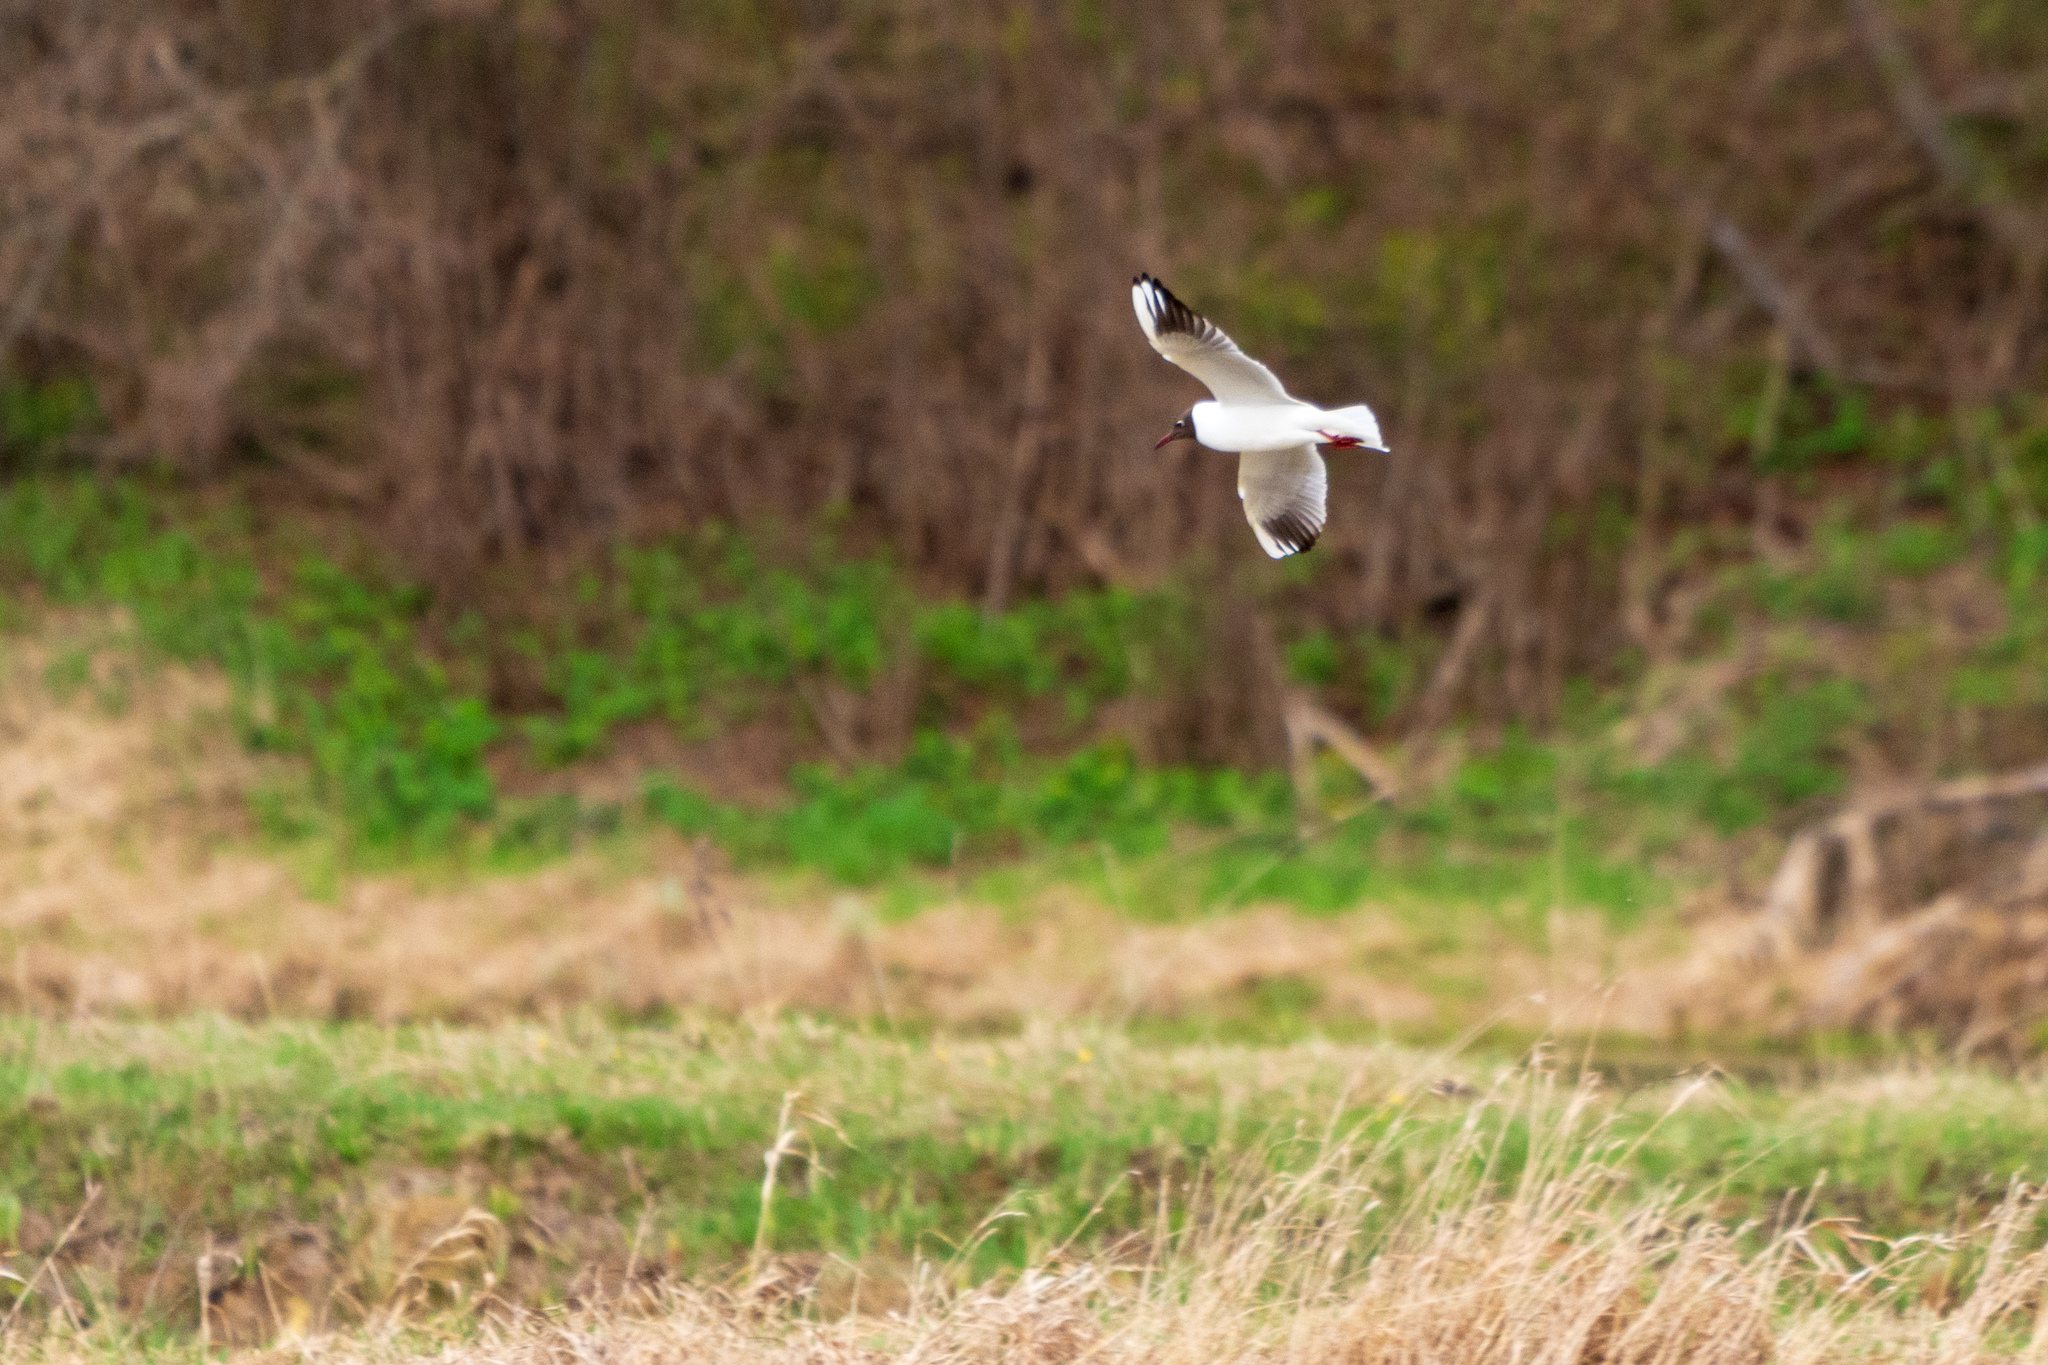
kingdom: Animalia
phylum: Chordata
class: Aves
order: Charadriiformes
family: Laridae
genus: Chroicocephalus
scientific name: Chroicocephalus ridibundus
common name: Black-headed gull
